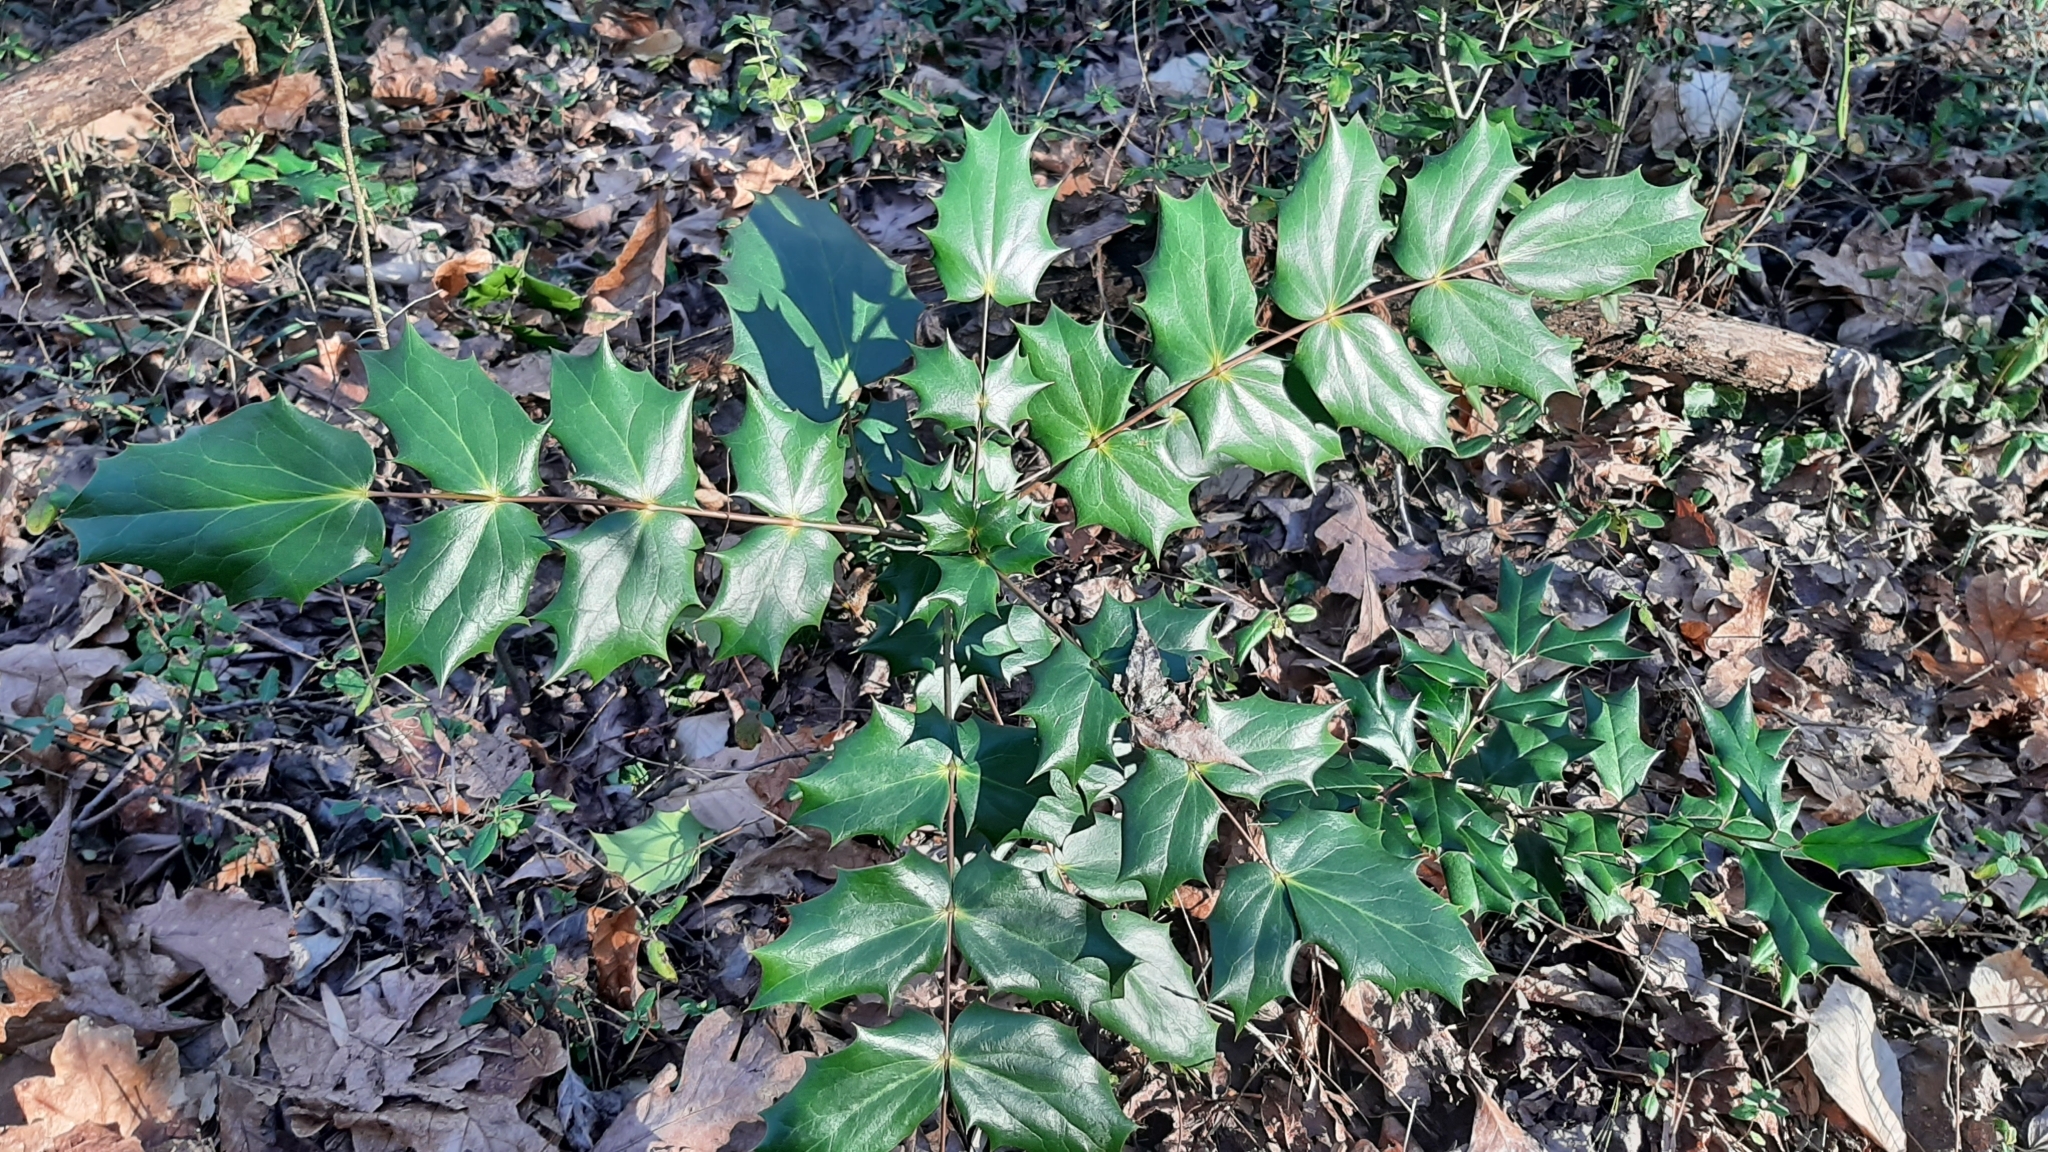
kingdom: Plantae
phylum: Tracheophyta
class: Magnoliopsida
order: Ranunculales
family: Berberidaceae
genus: Mahonia
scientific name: Mahonia bealei
